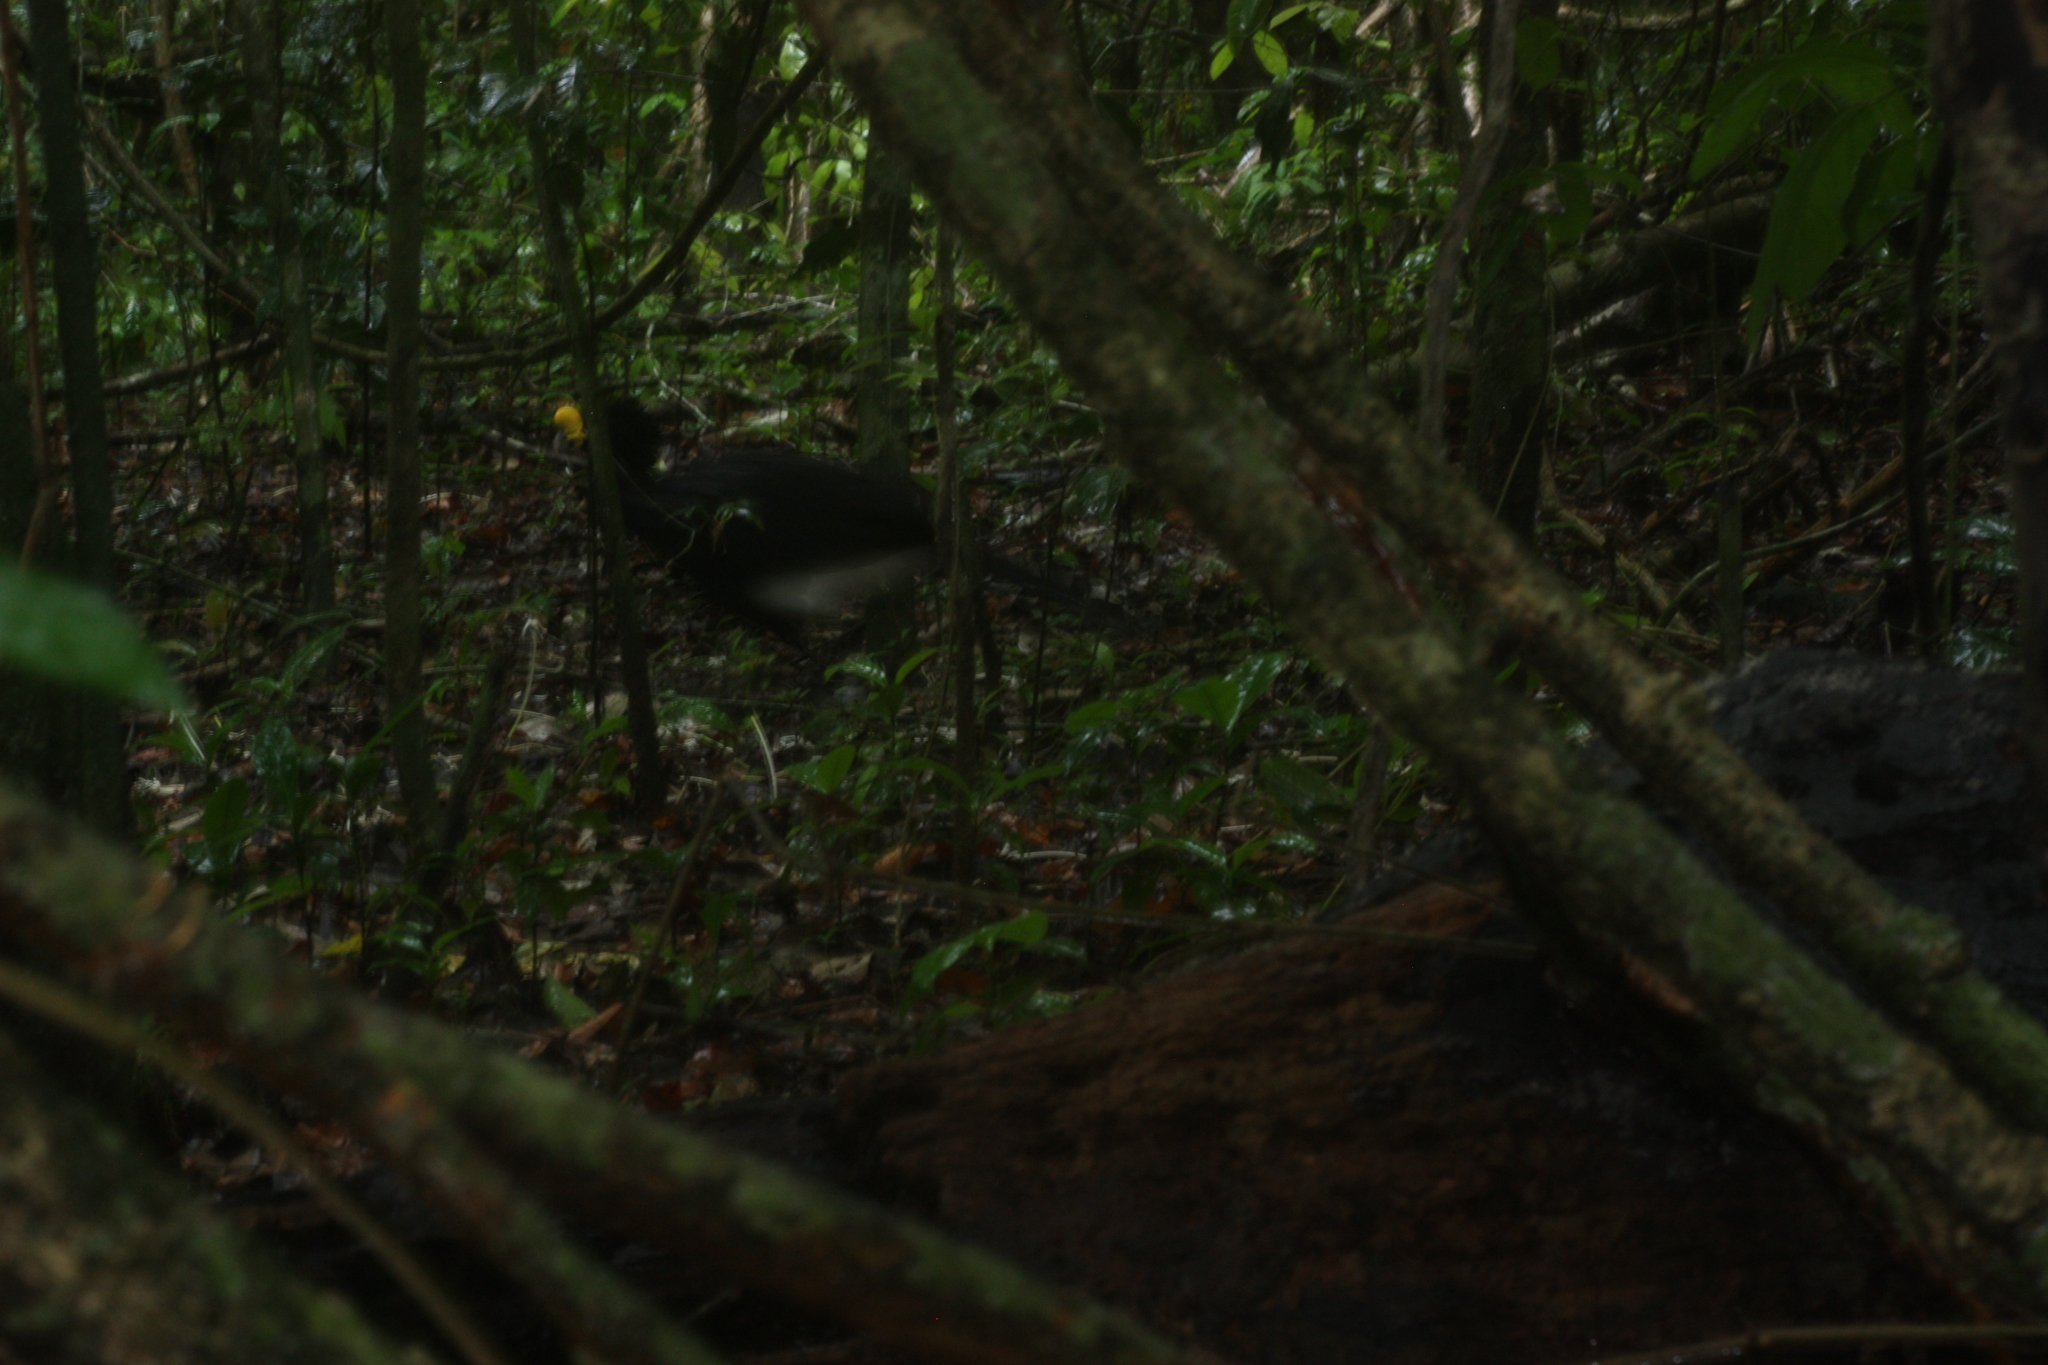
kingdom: Animalia
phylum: Chordata
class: Aves
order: Galliformes
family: Cracidae
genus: Crax
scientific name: Crax rubra
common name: Great curassow
